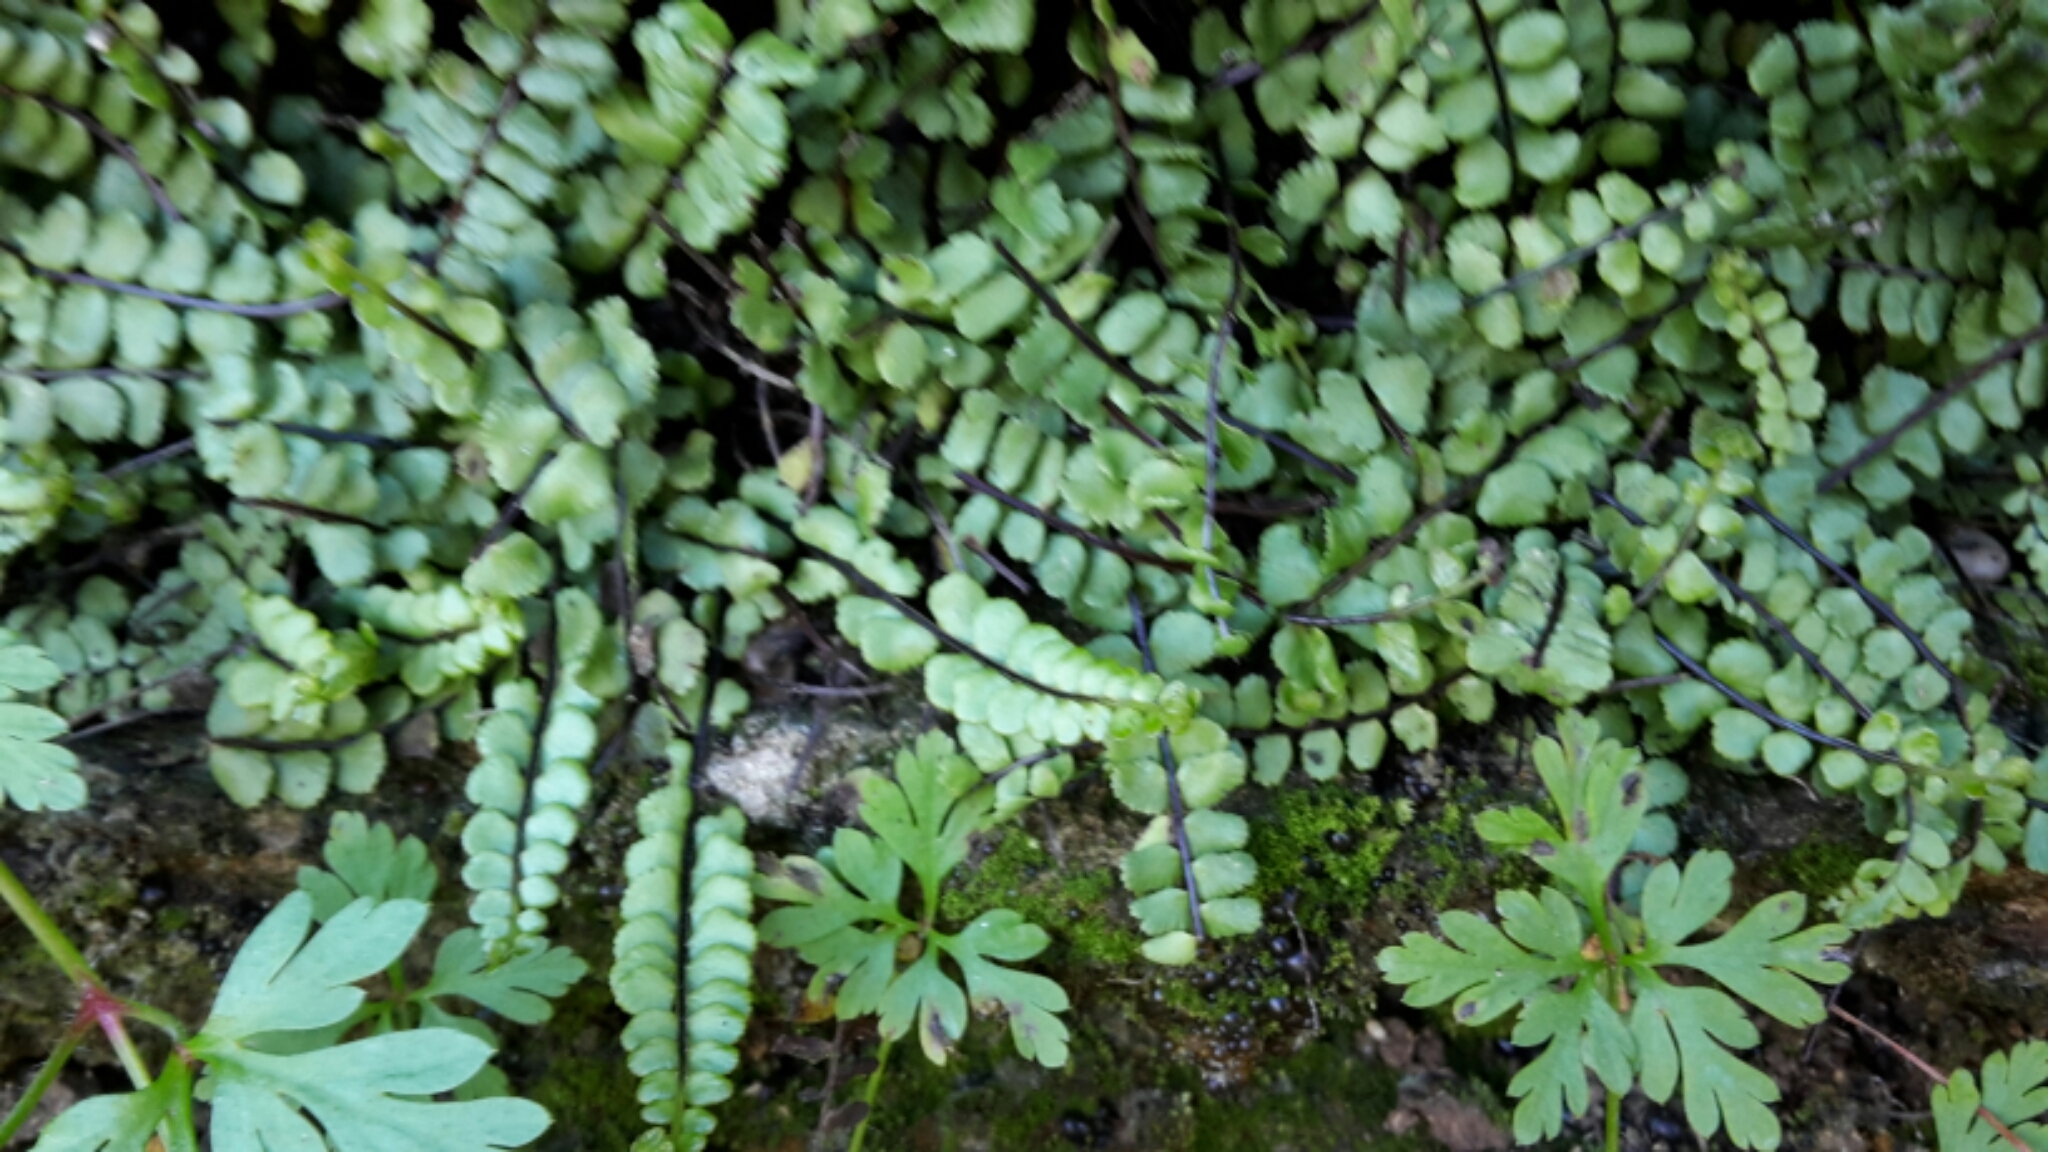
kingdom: Plantae
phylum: Tracheophyta
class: Polypodiopsida
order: Polypodiales
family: Aspleniaceae
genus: Asplenium
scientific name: Asplenium trichomanes
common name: Maidenhair spleenwort
